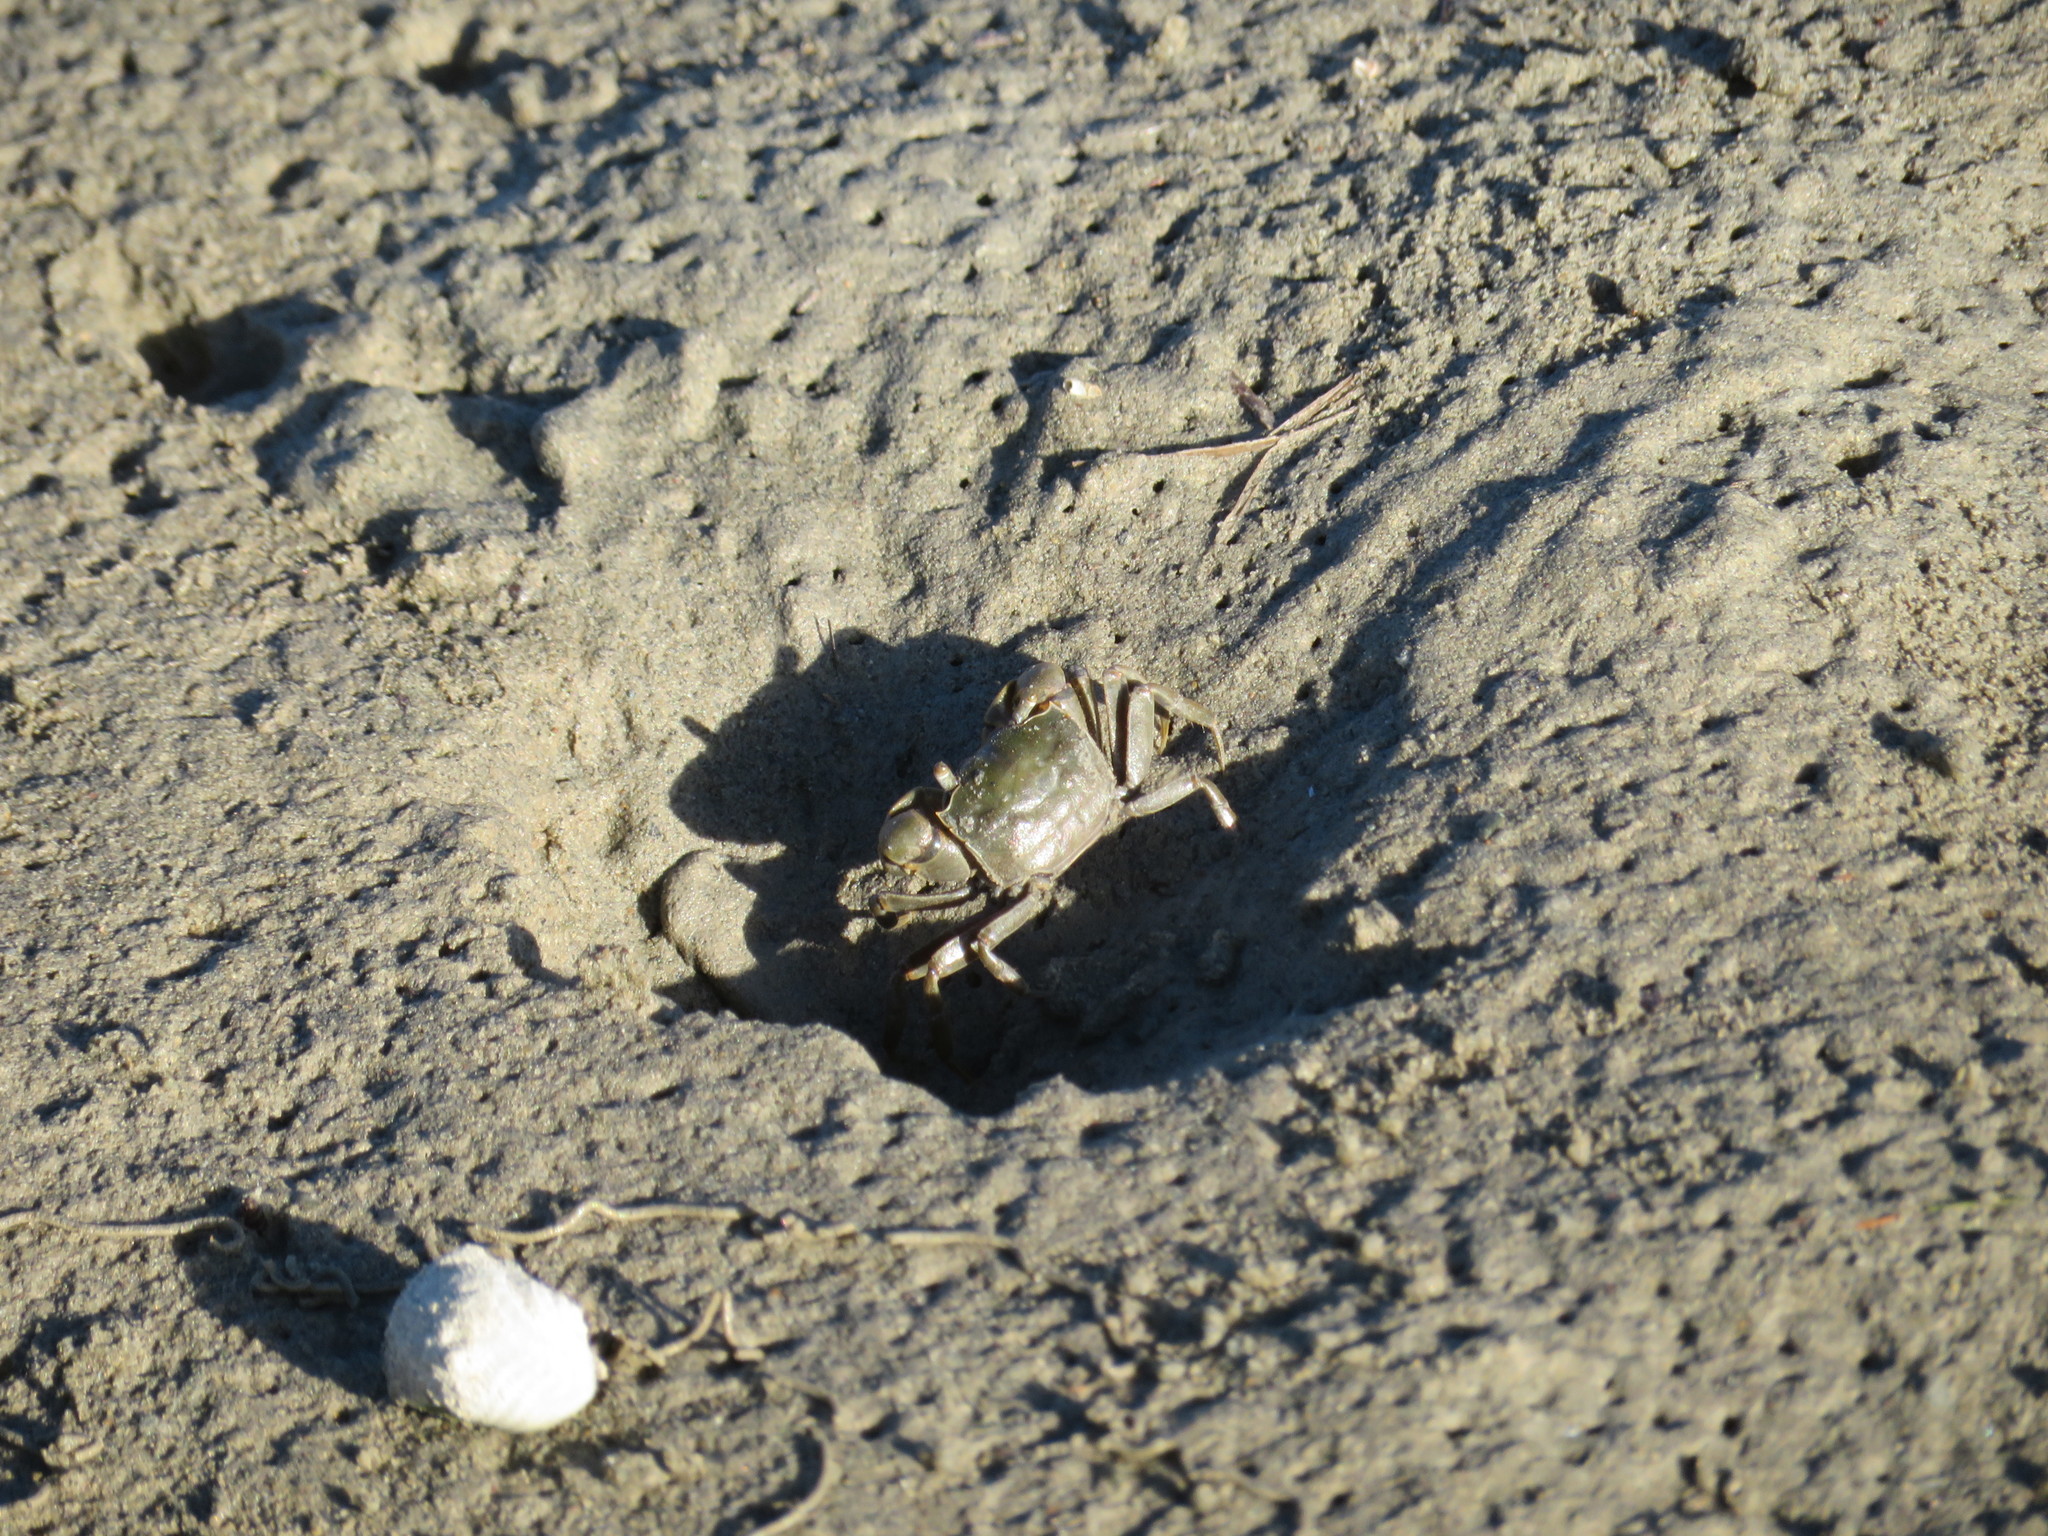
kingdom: Animalia
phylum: Arthropoda
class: Malacostraca
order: Decapoda
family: Varunidae
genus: Austrohelice
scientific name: Austrohelice crassa
